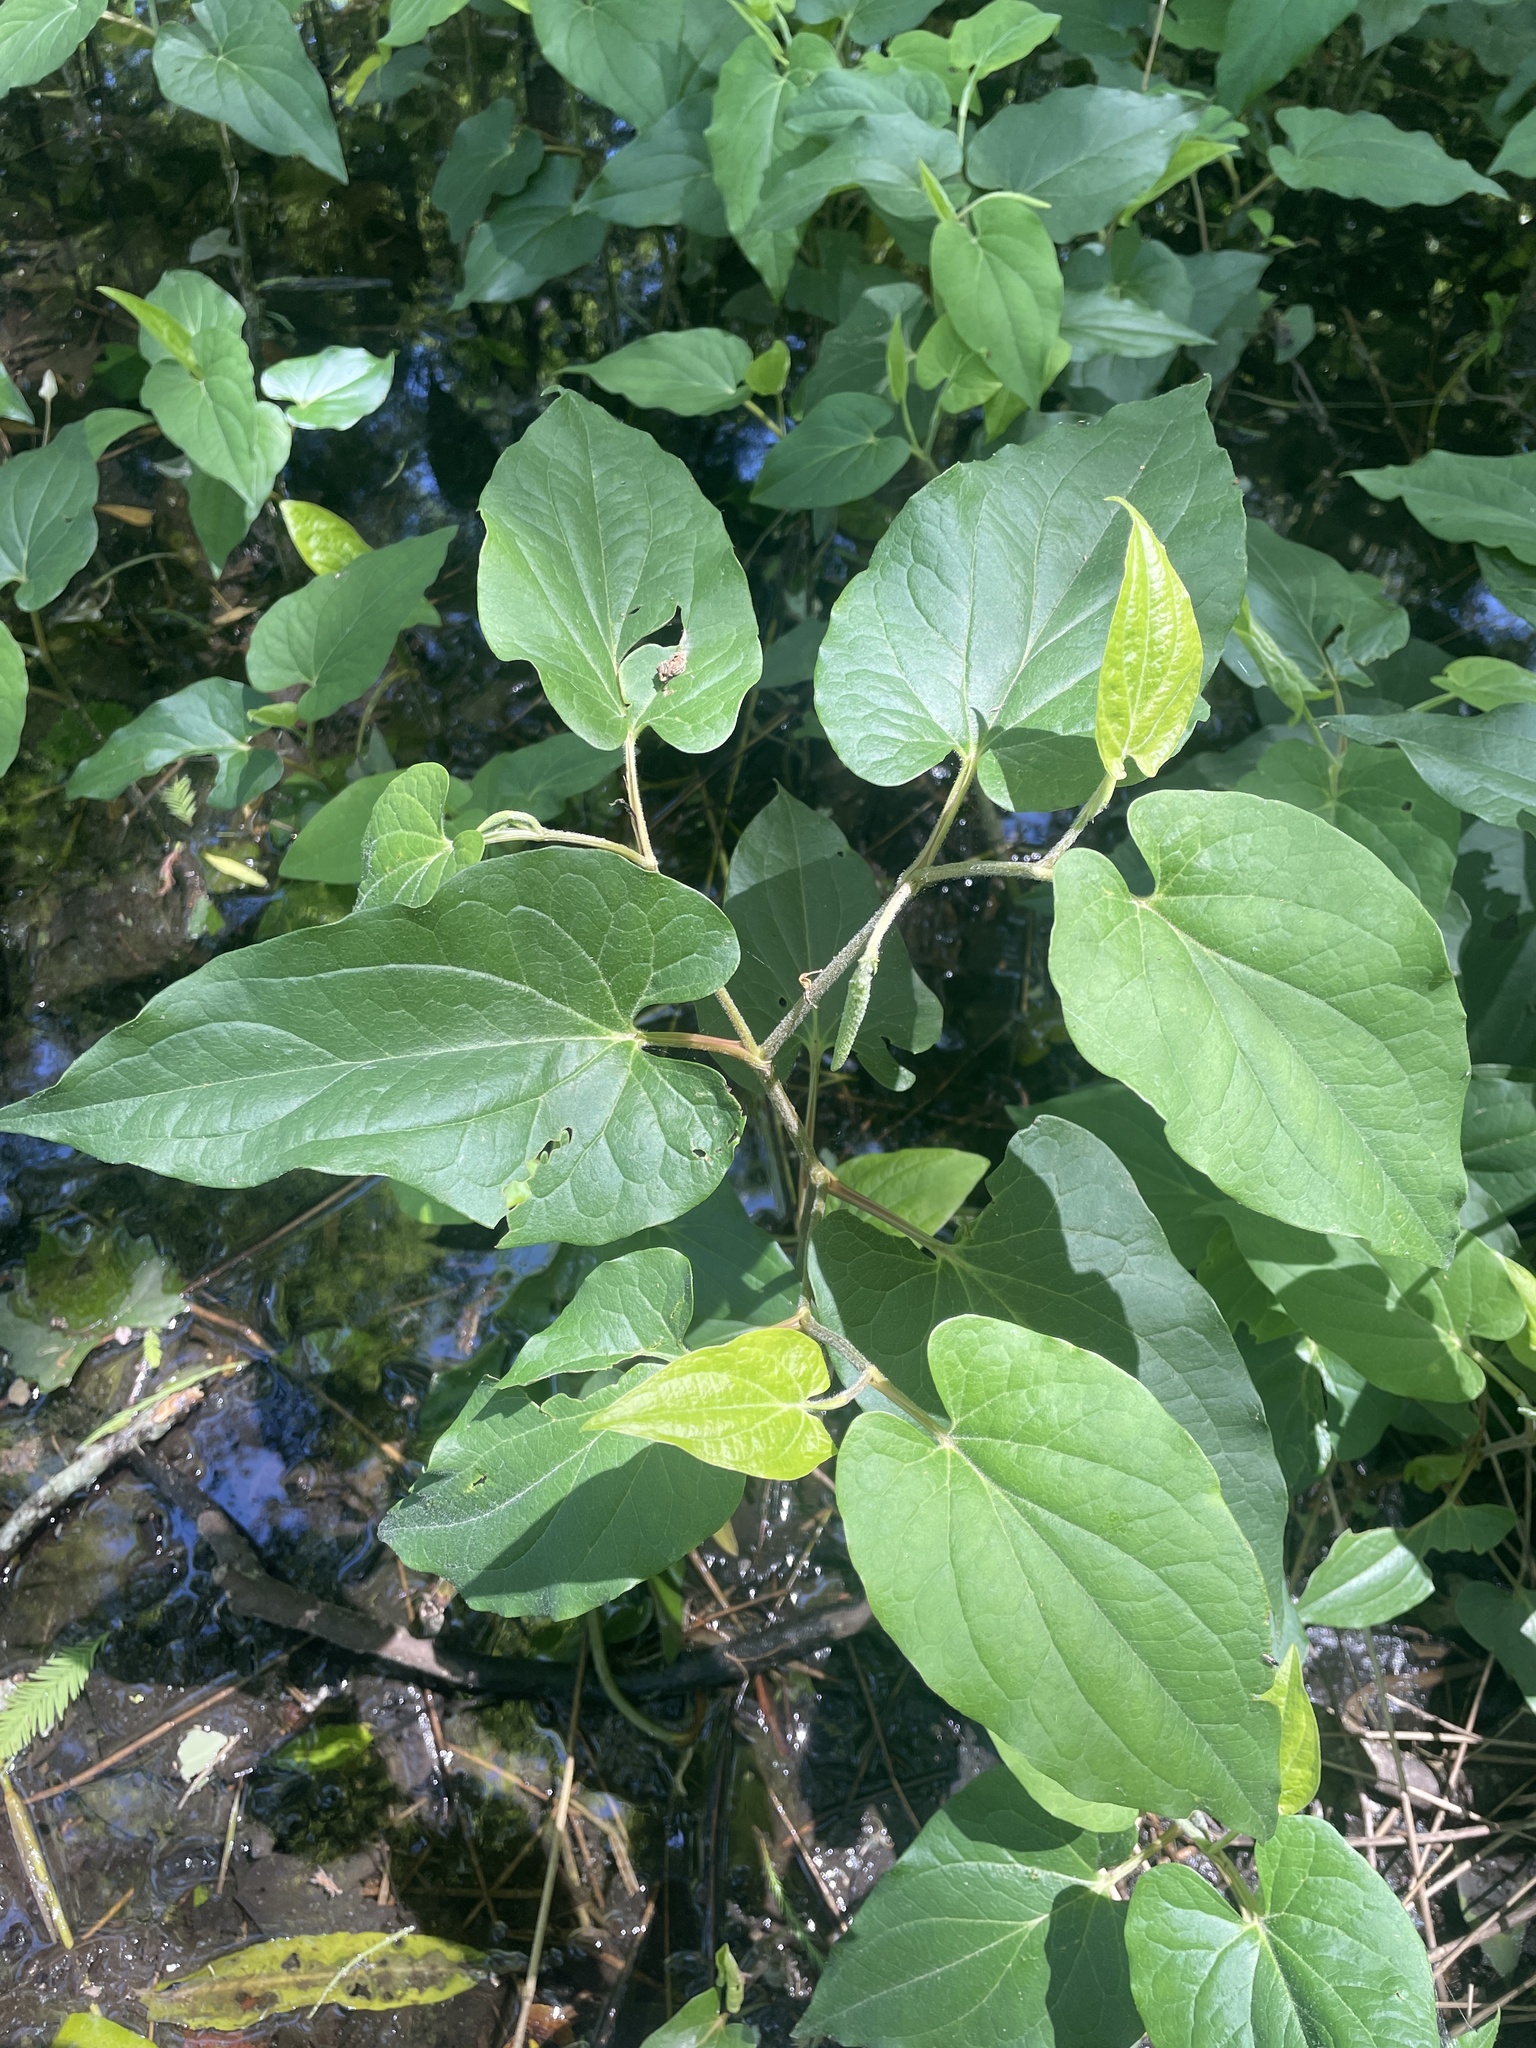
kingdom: Plantae
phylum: Tracheophyta
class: Magnoliopsida
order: Piperales
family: Saururaceae
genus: Saururus
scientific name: Saururus cernuus
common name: Lizard's-tail
